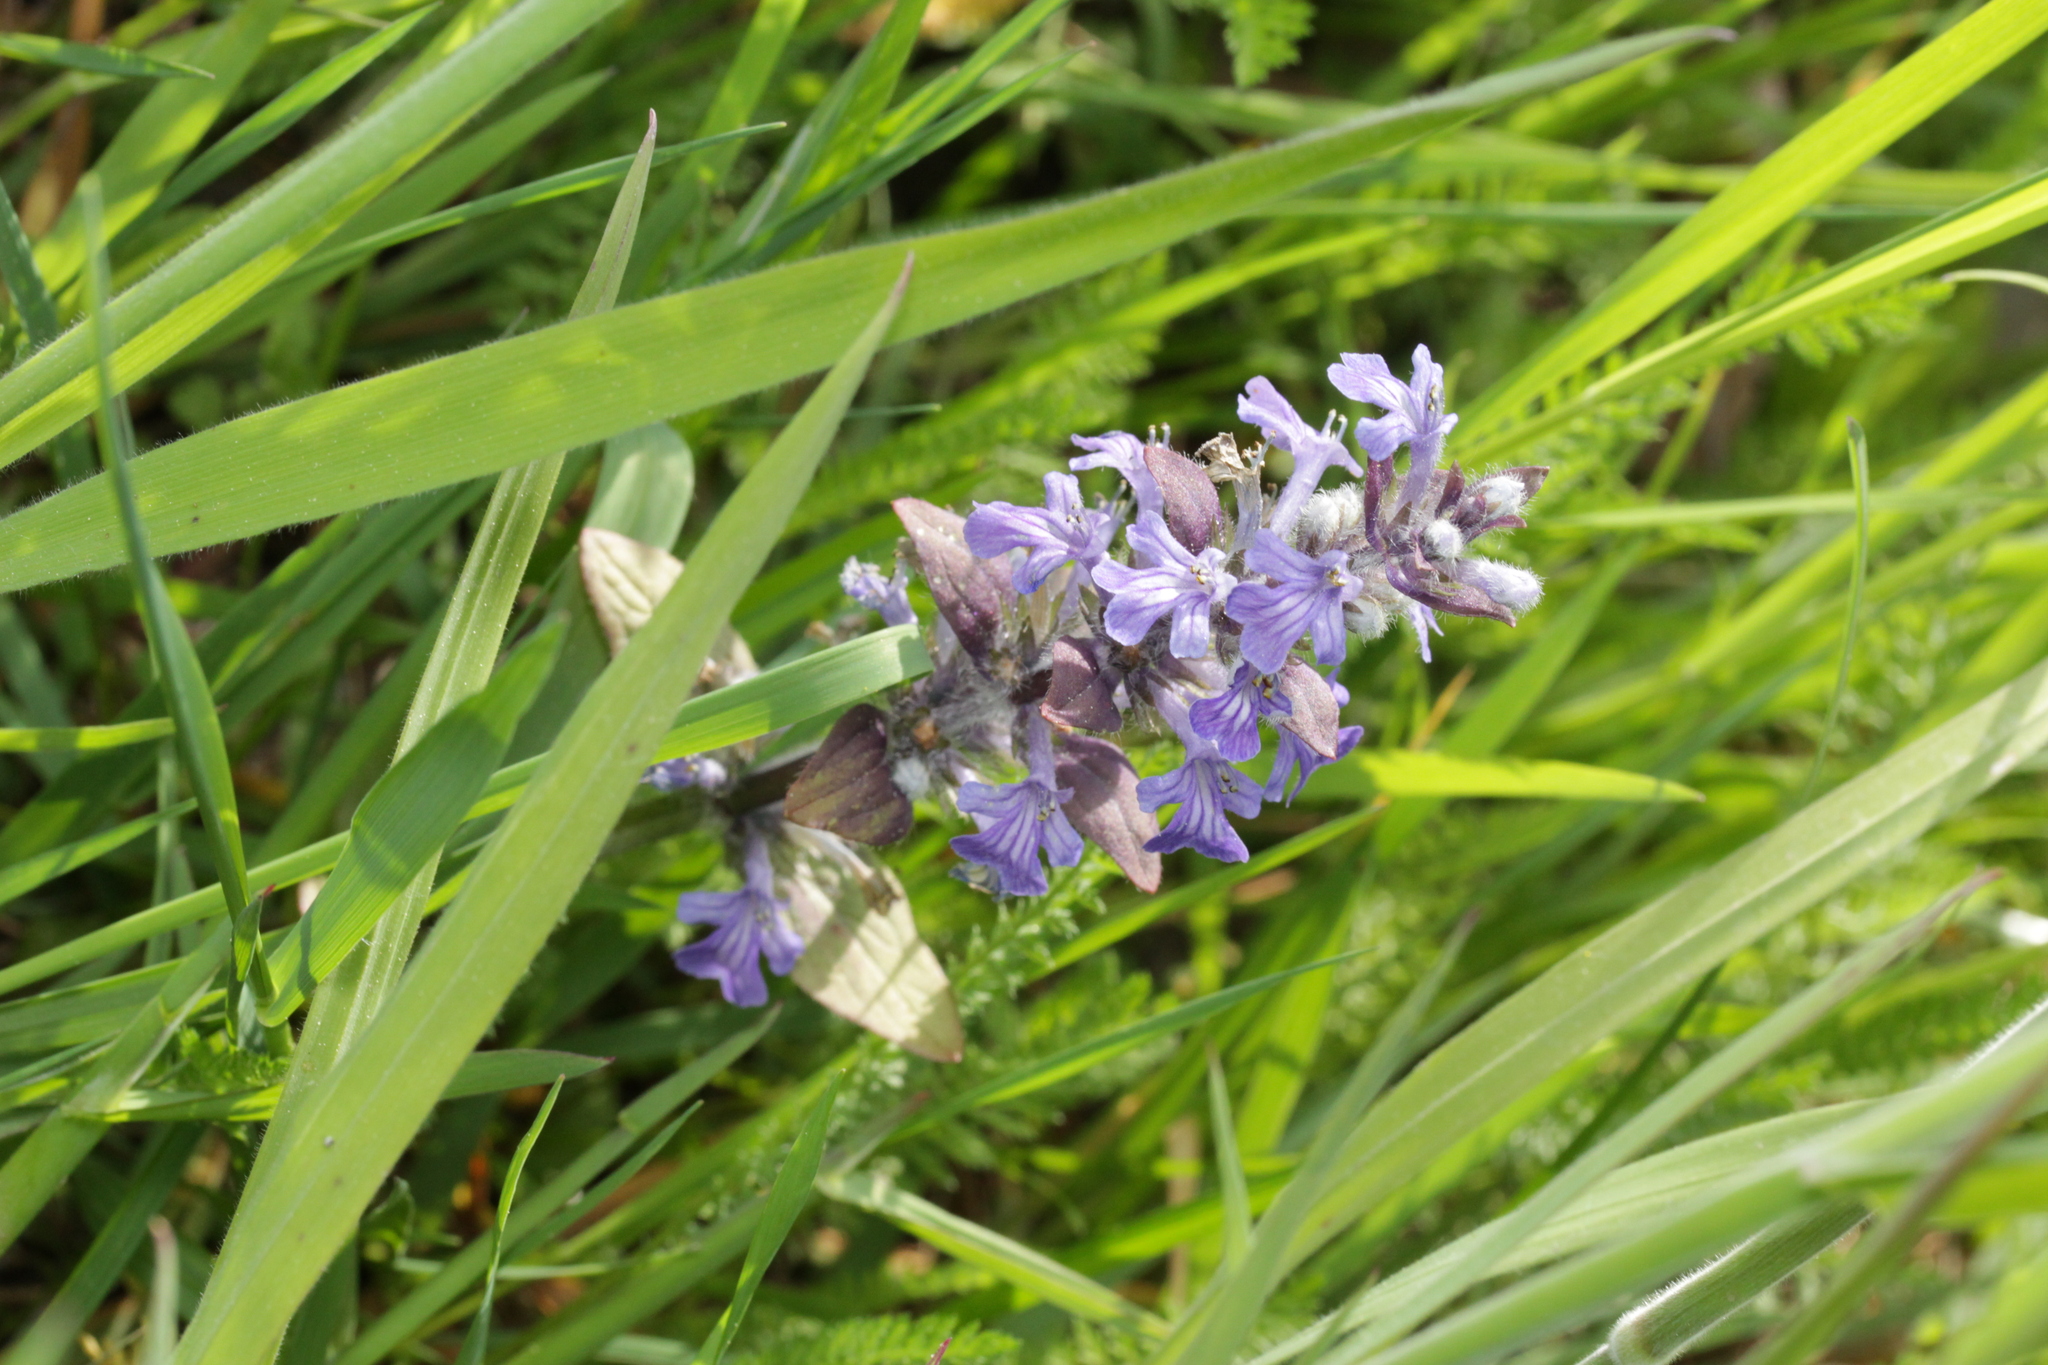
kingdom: Plantae
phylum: Tracheophyta
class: Magnoliopsida
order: Lamiales
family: Lamiaceae
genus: Ajuga
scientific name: Ajuga reptans
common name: Bugle
